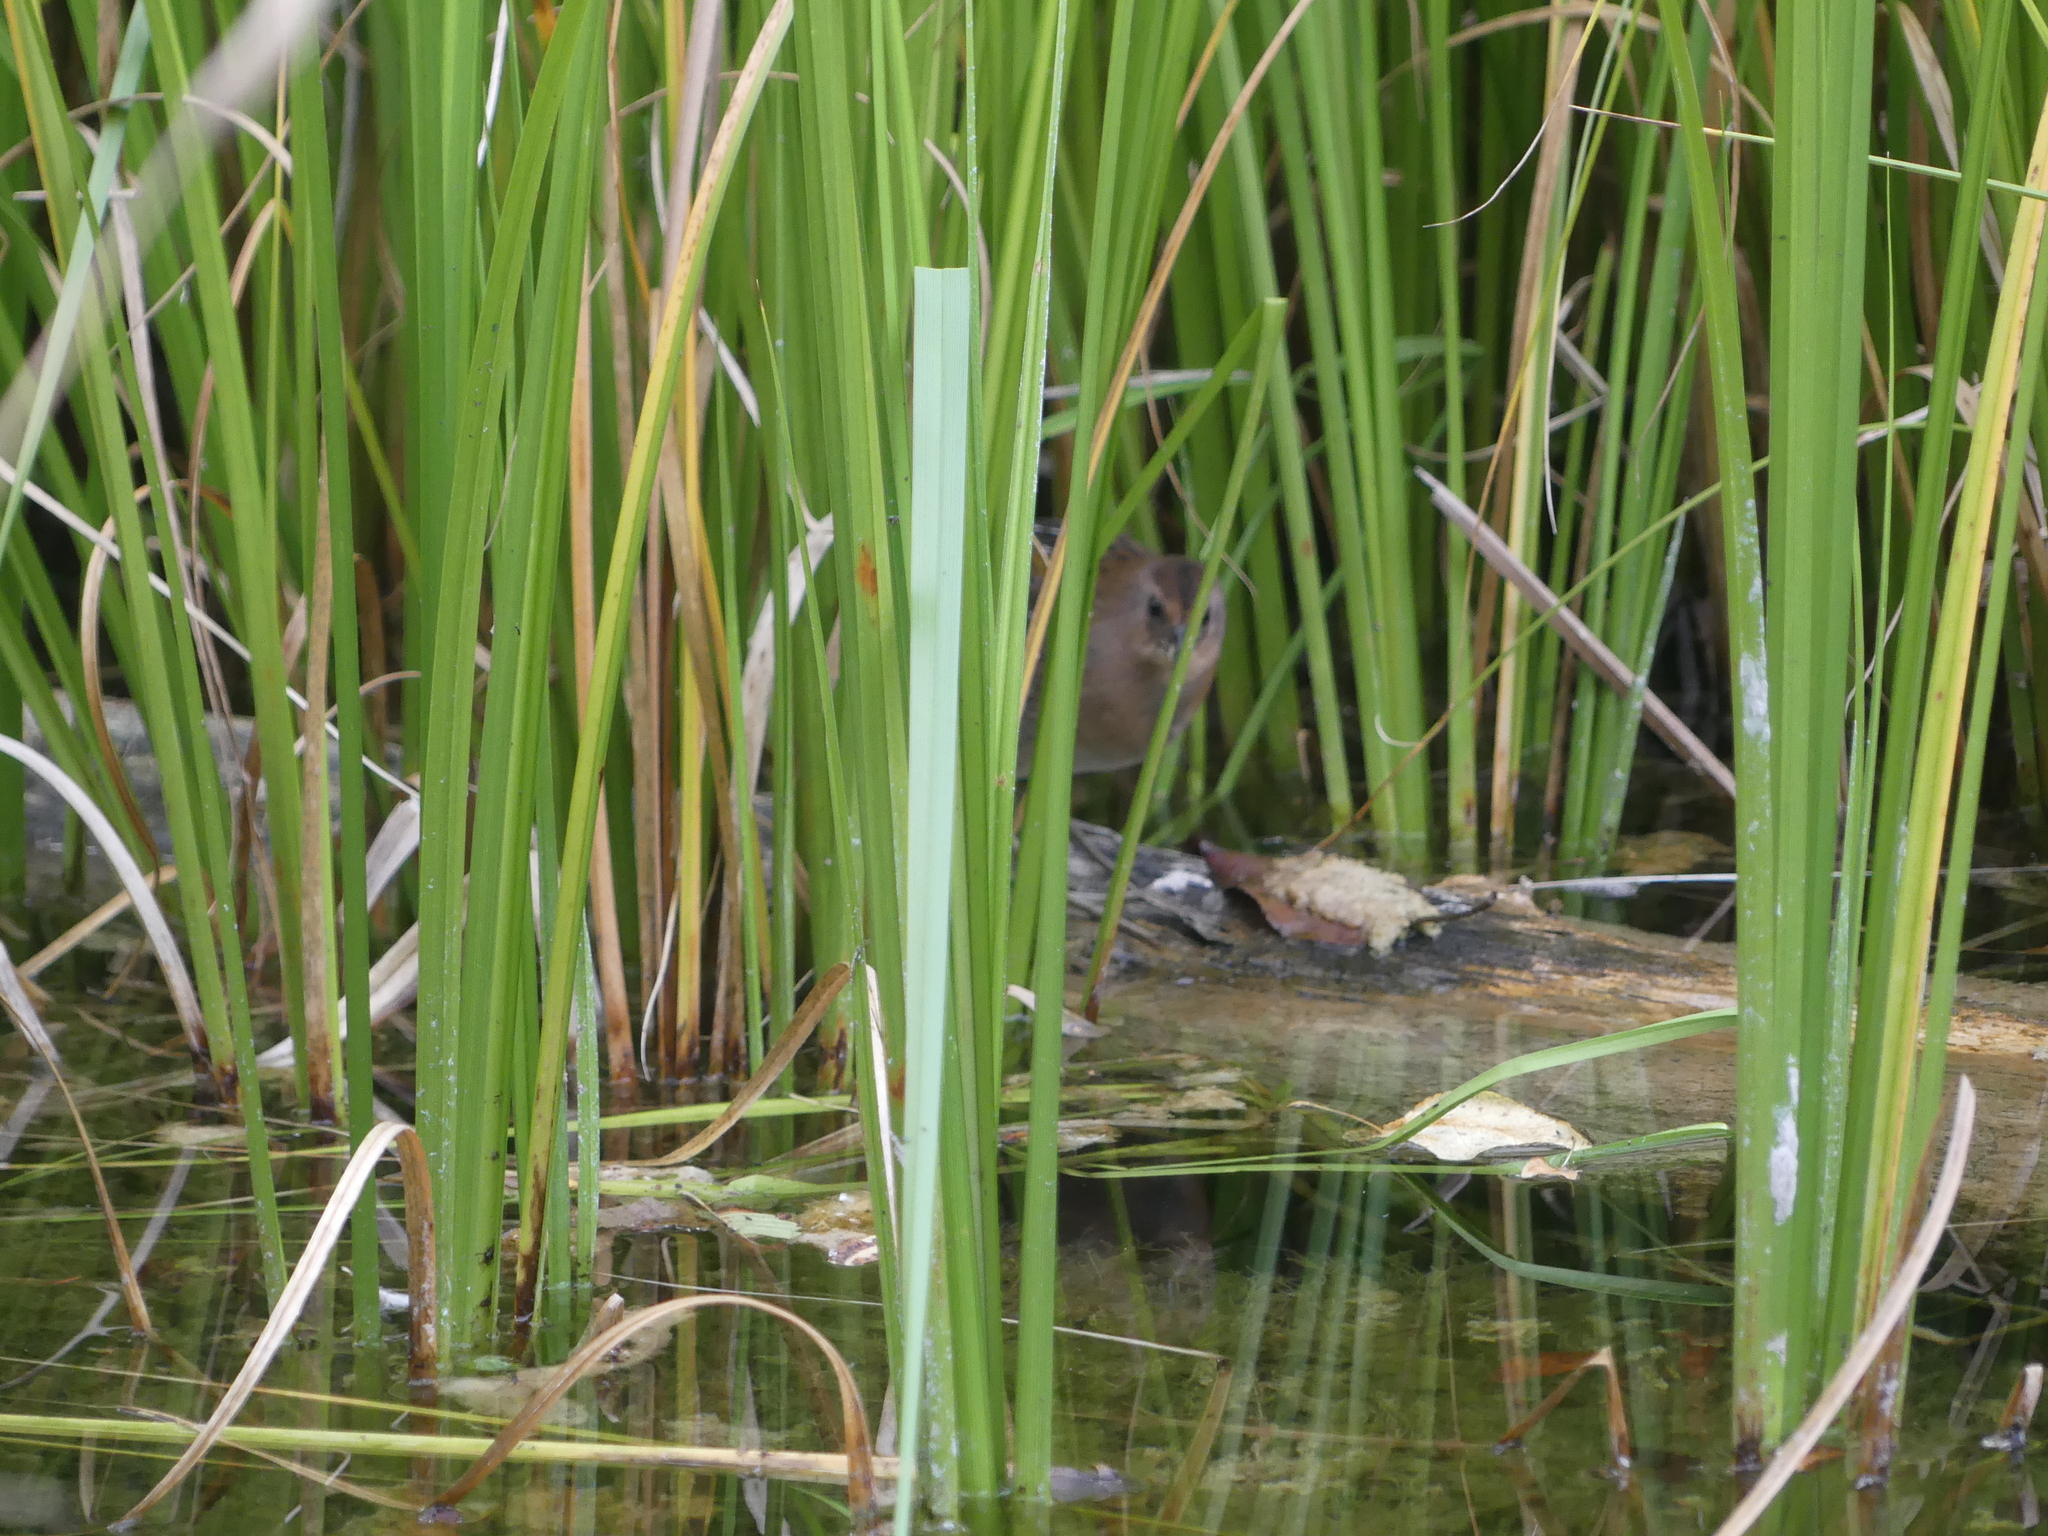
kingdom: Animalia
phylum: Chordata
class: Aves
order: Gruiformes
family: Rallidae
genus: Porzana
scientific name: Porzana carolina
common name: Sora
